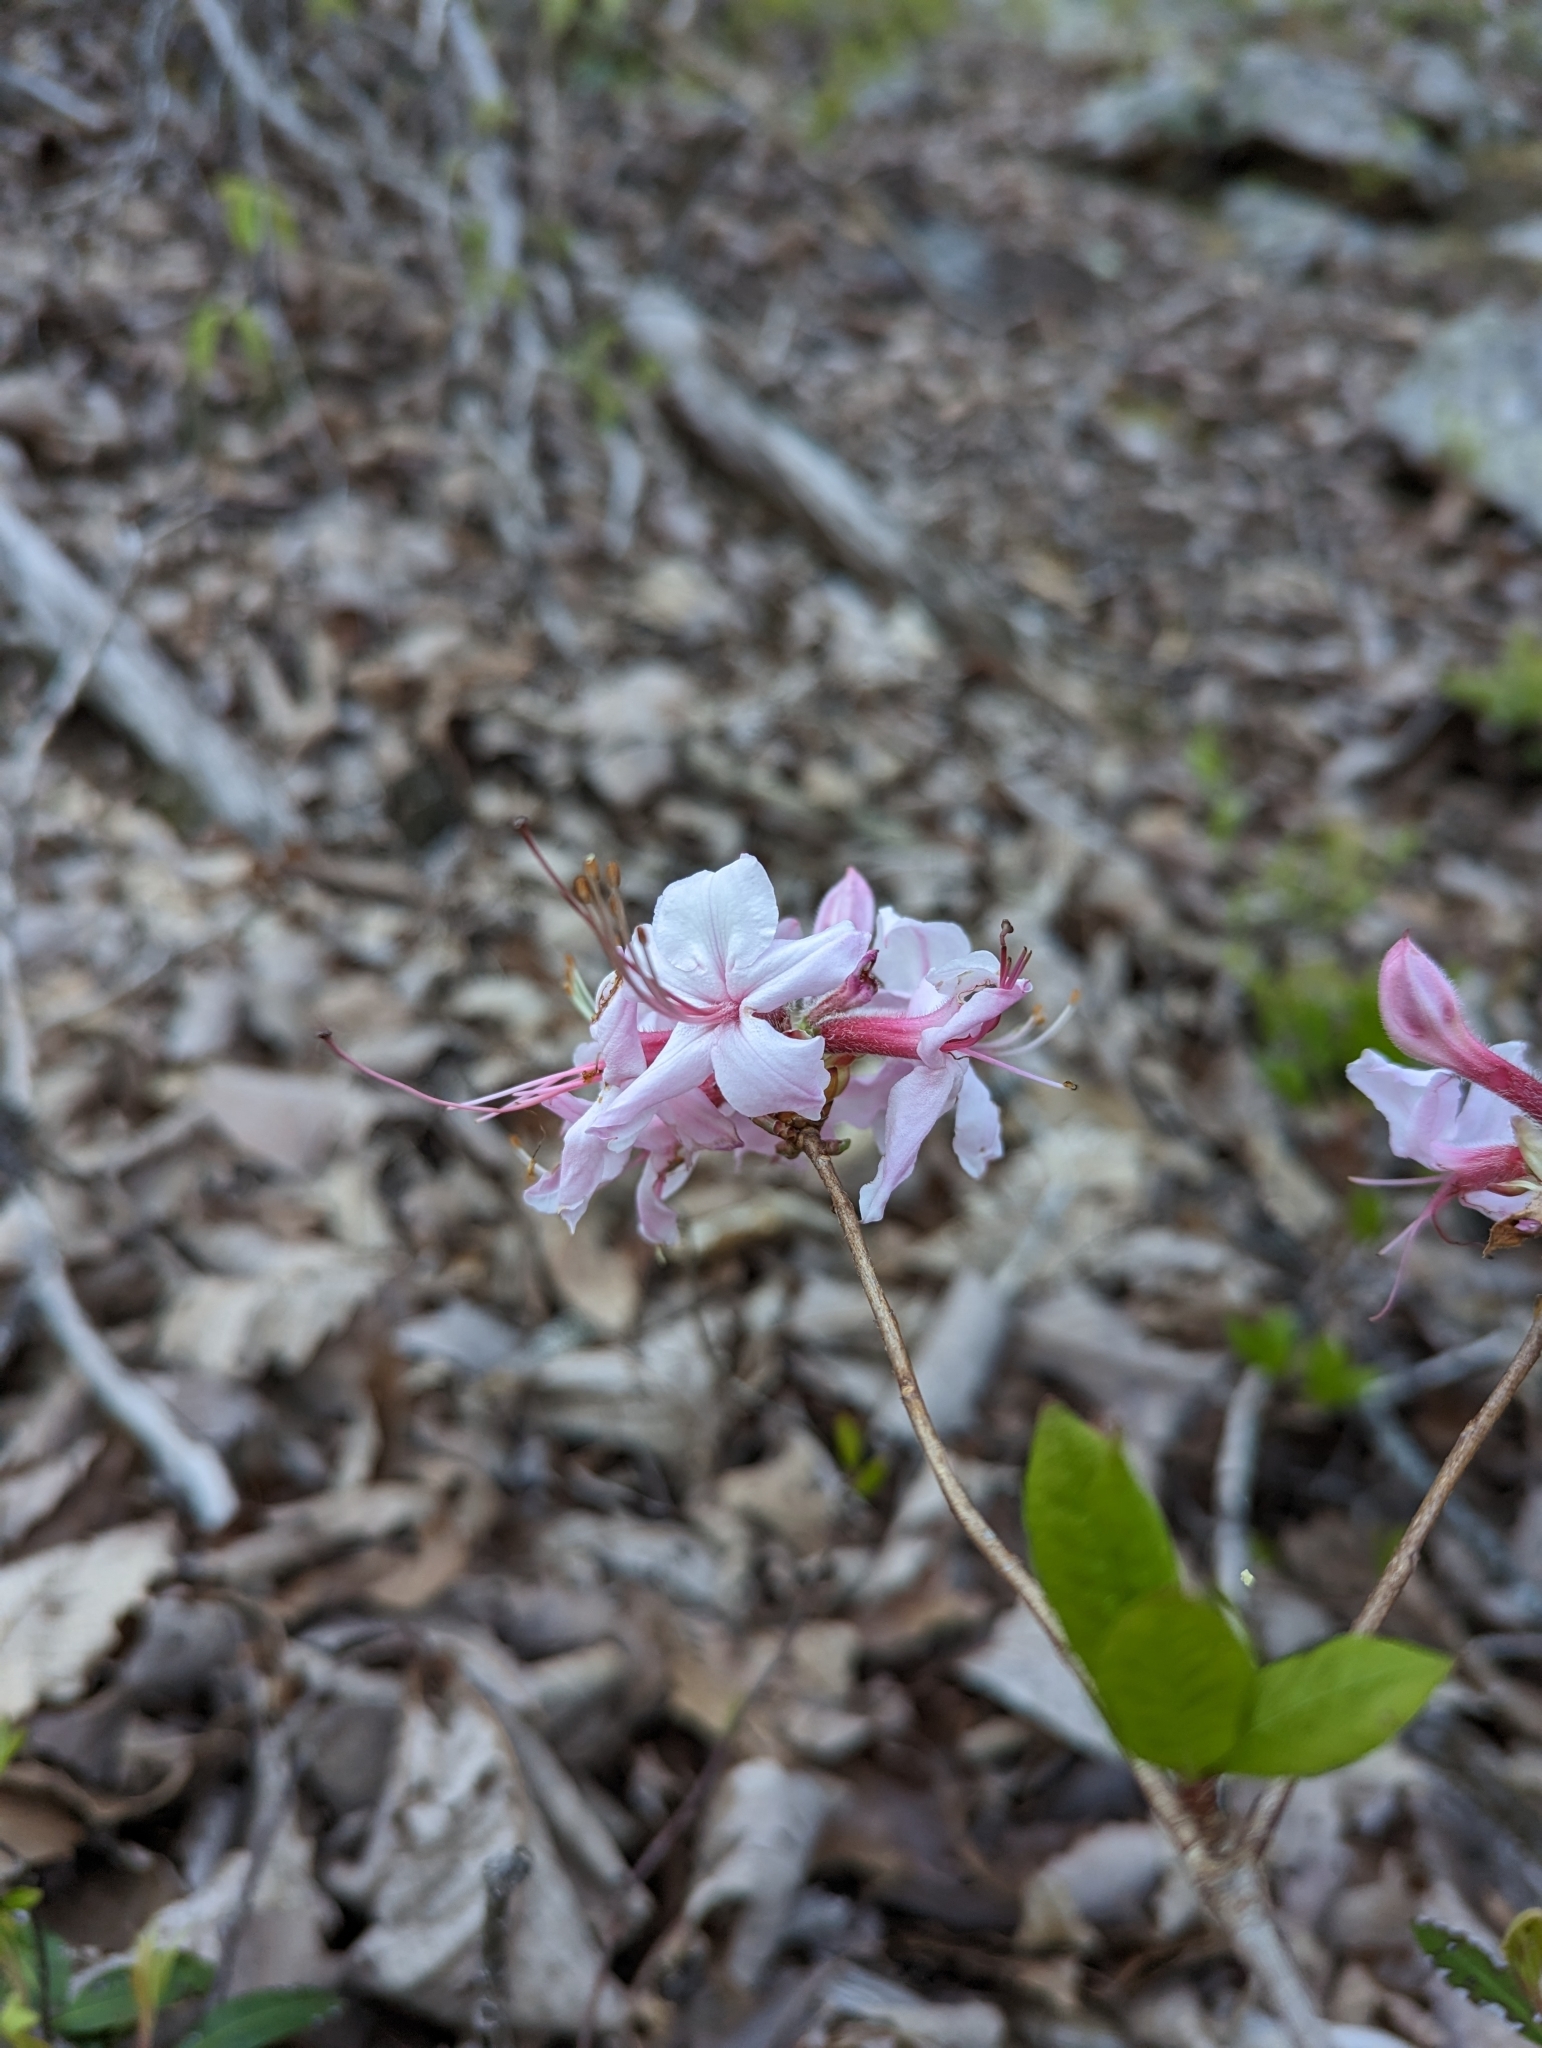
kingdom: Plantae
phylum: Tracheophyta
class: Magnoliopsida
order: Ericales
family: Ericaceae
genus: Rhododendron
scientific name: Rhododendron periclymenoides
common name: Election-pink
